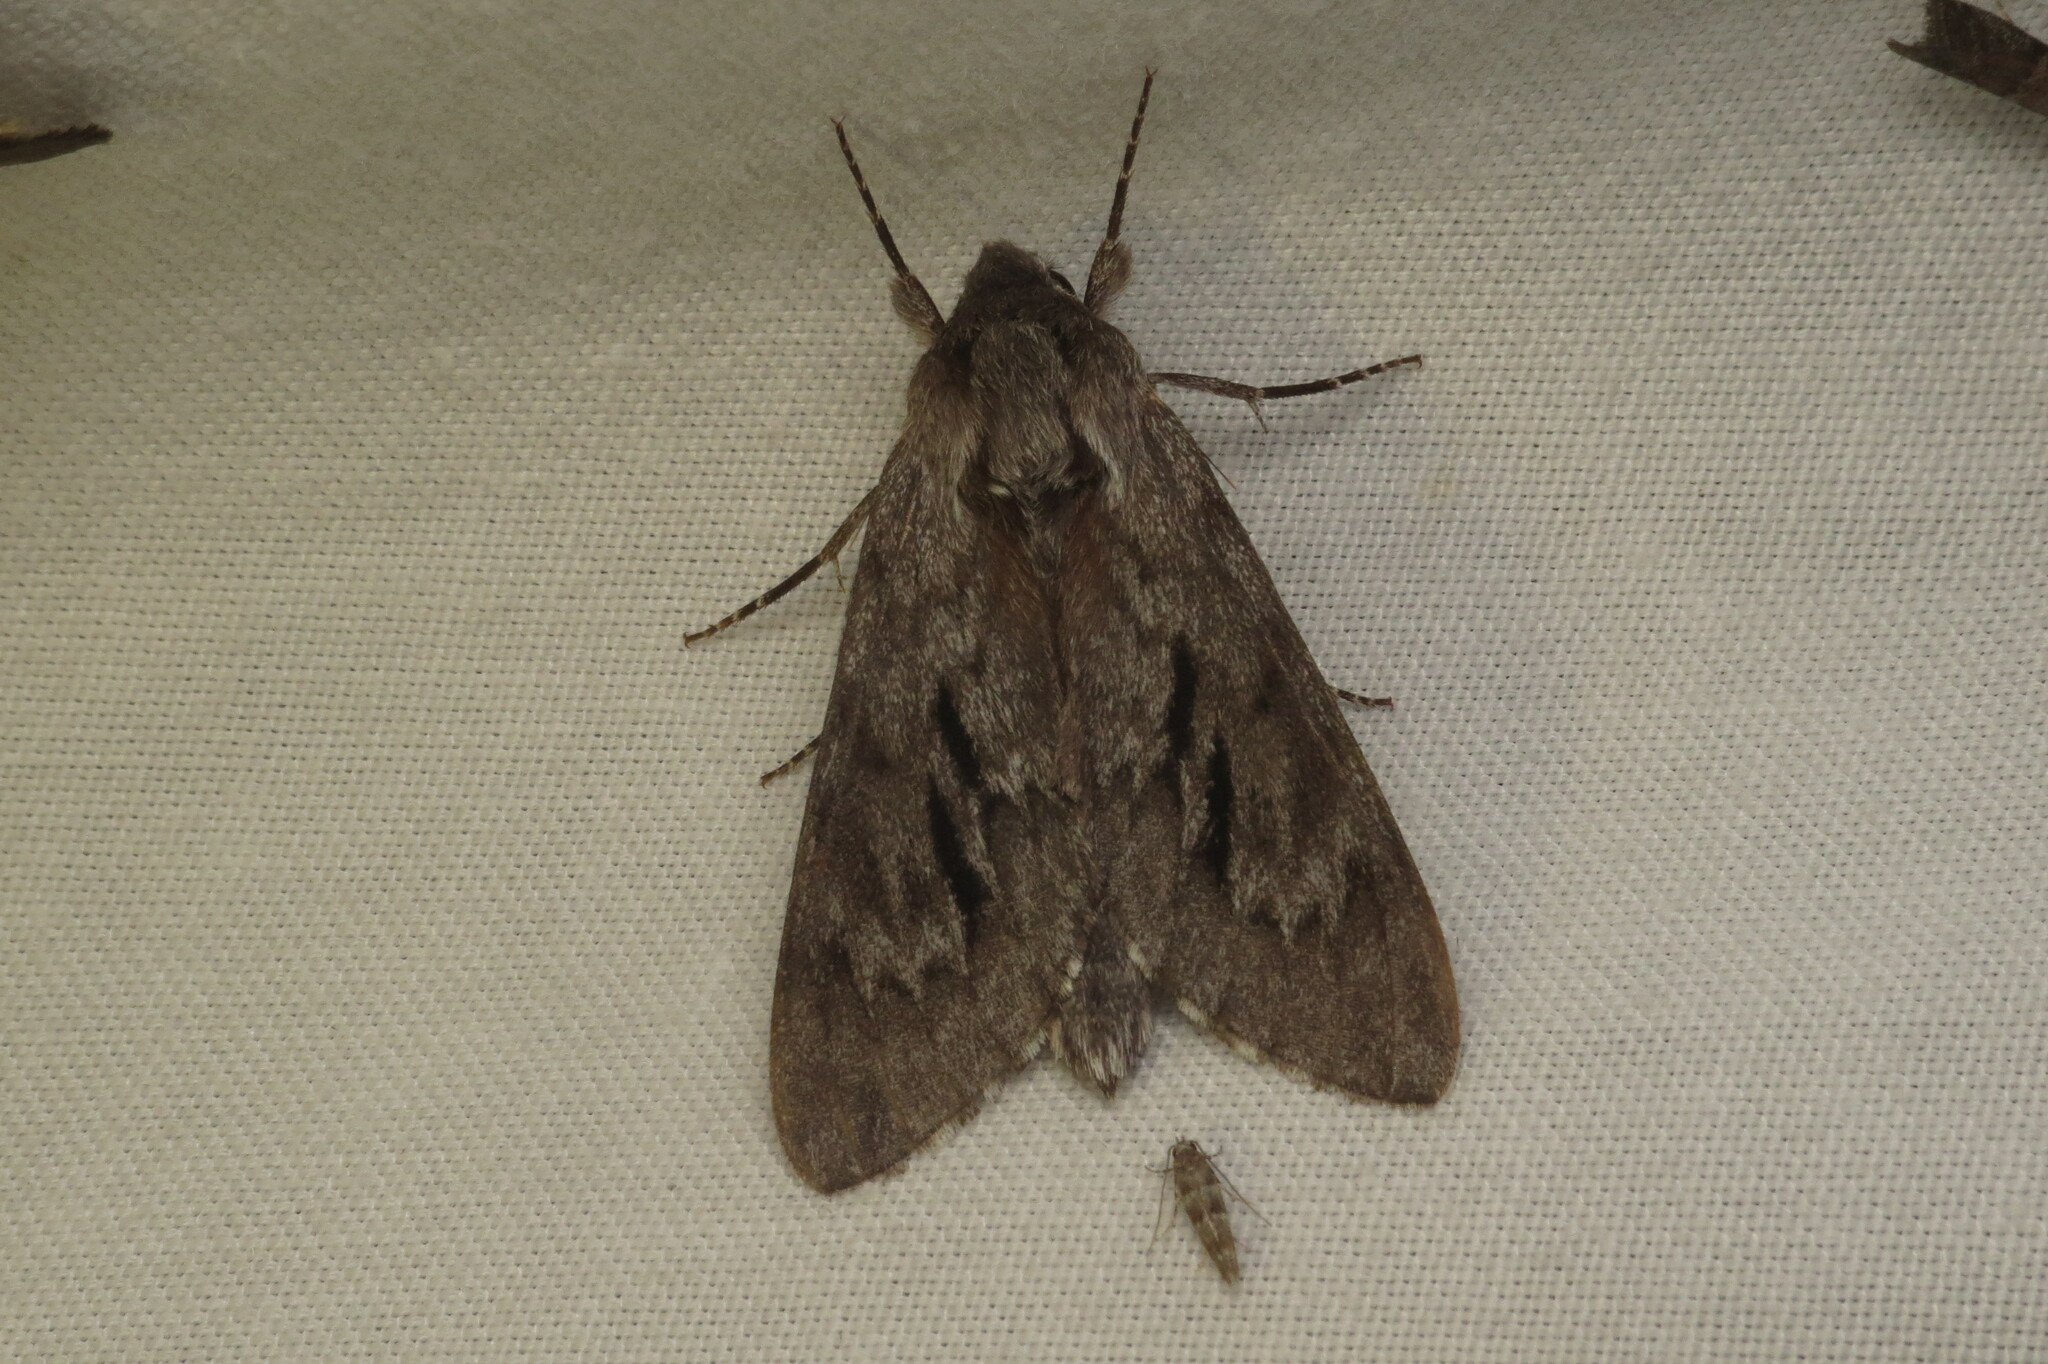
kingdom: Animalia
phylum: Arthropoda
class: Insecta
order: Lepidoptera
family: Sphingidae
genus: Lapara
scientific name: Lapara coniferarum
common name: Southern pine sphinx
